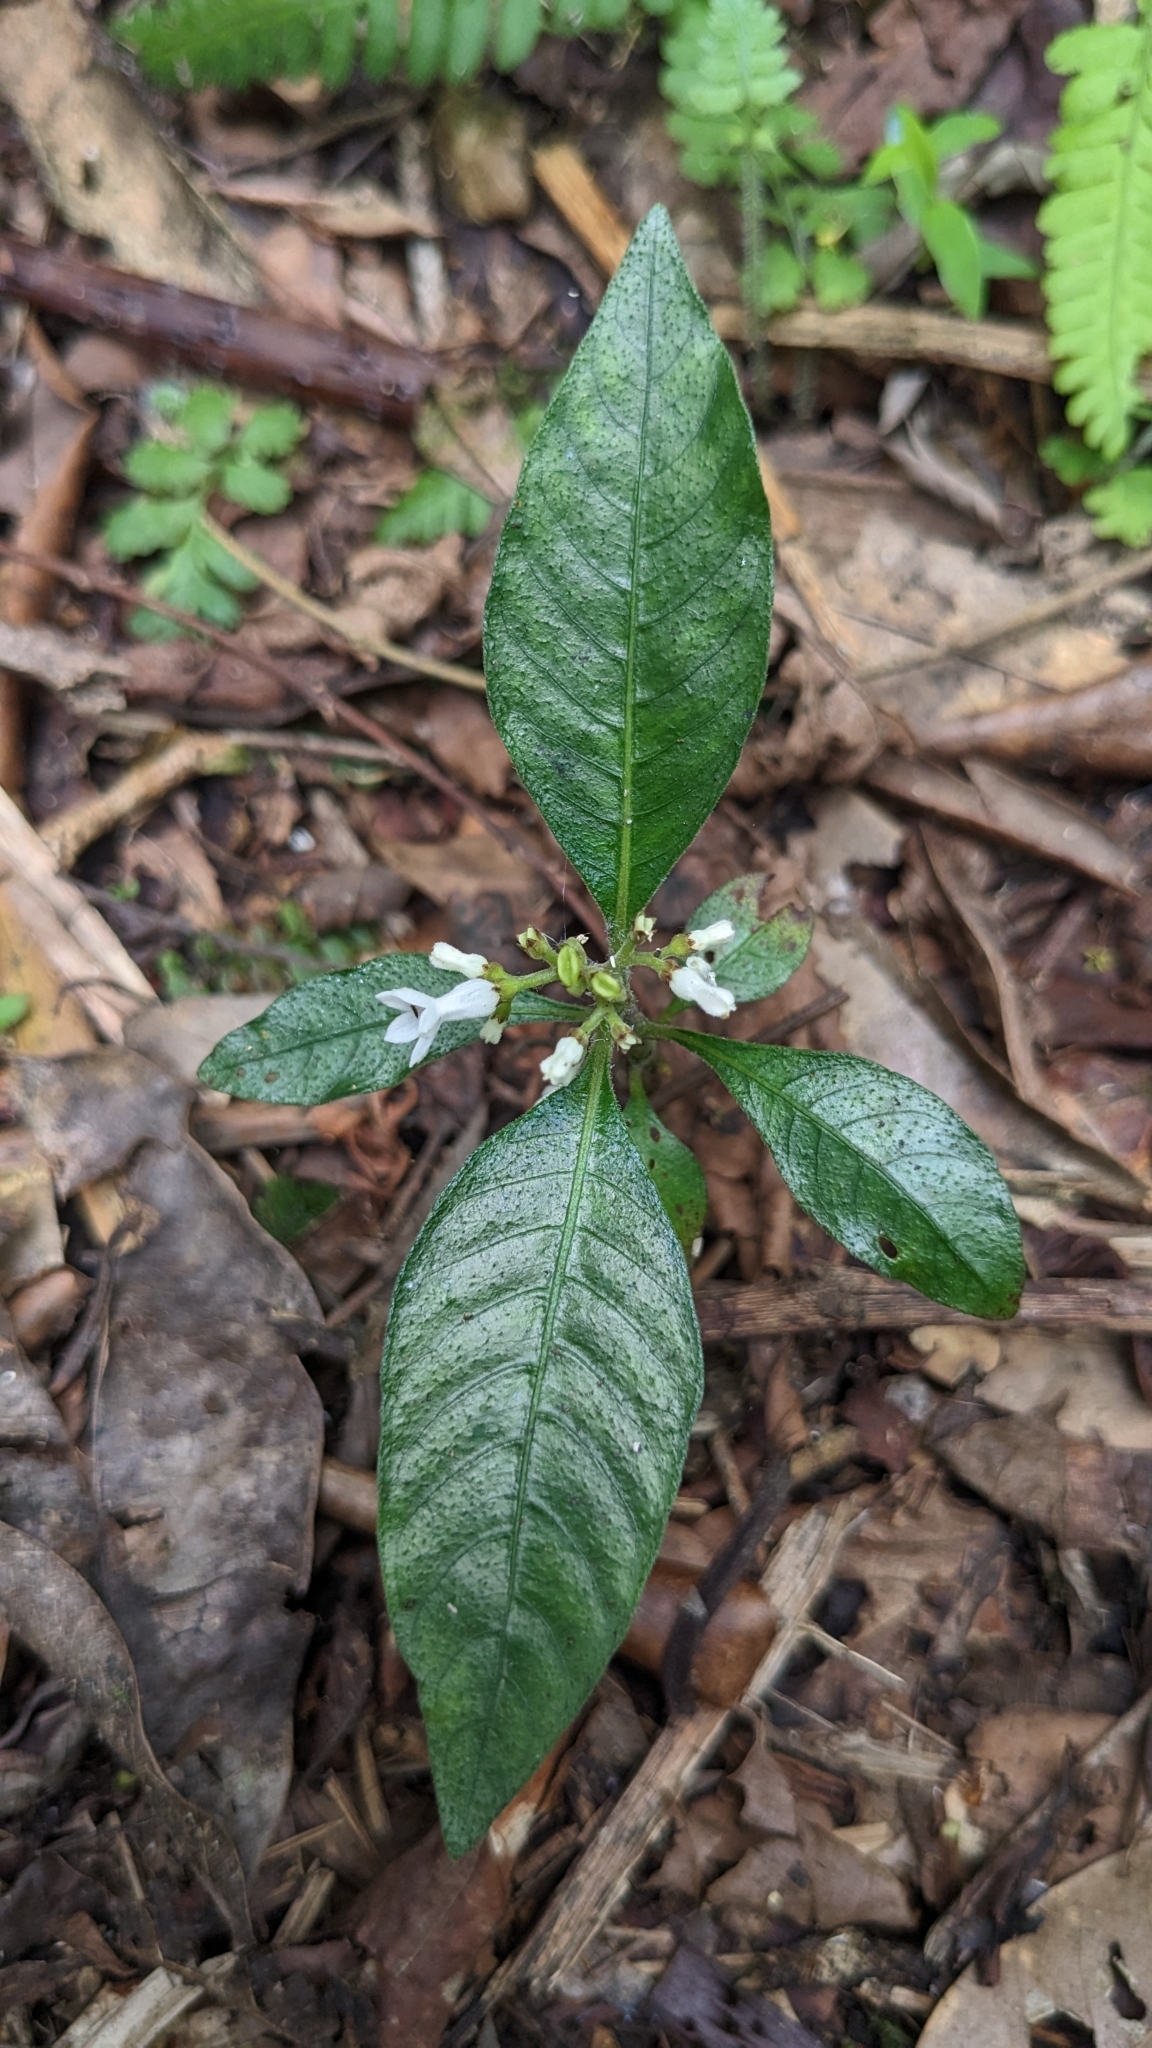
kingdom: Plantae
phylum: Tracheophyta
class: Magnoliopsida
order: Gentianales
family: Rubiaceae
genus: Ophiorrhiza
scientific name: Ophiorrhiza pumila
